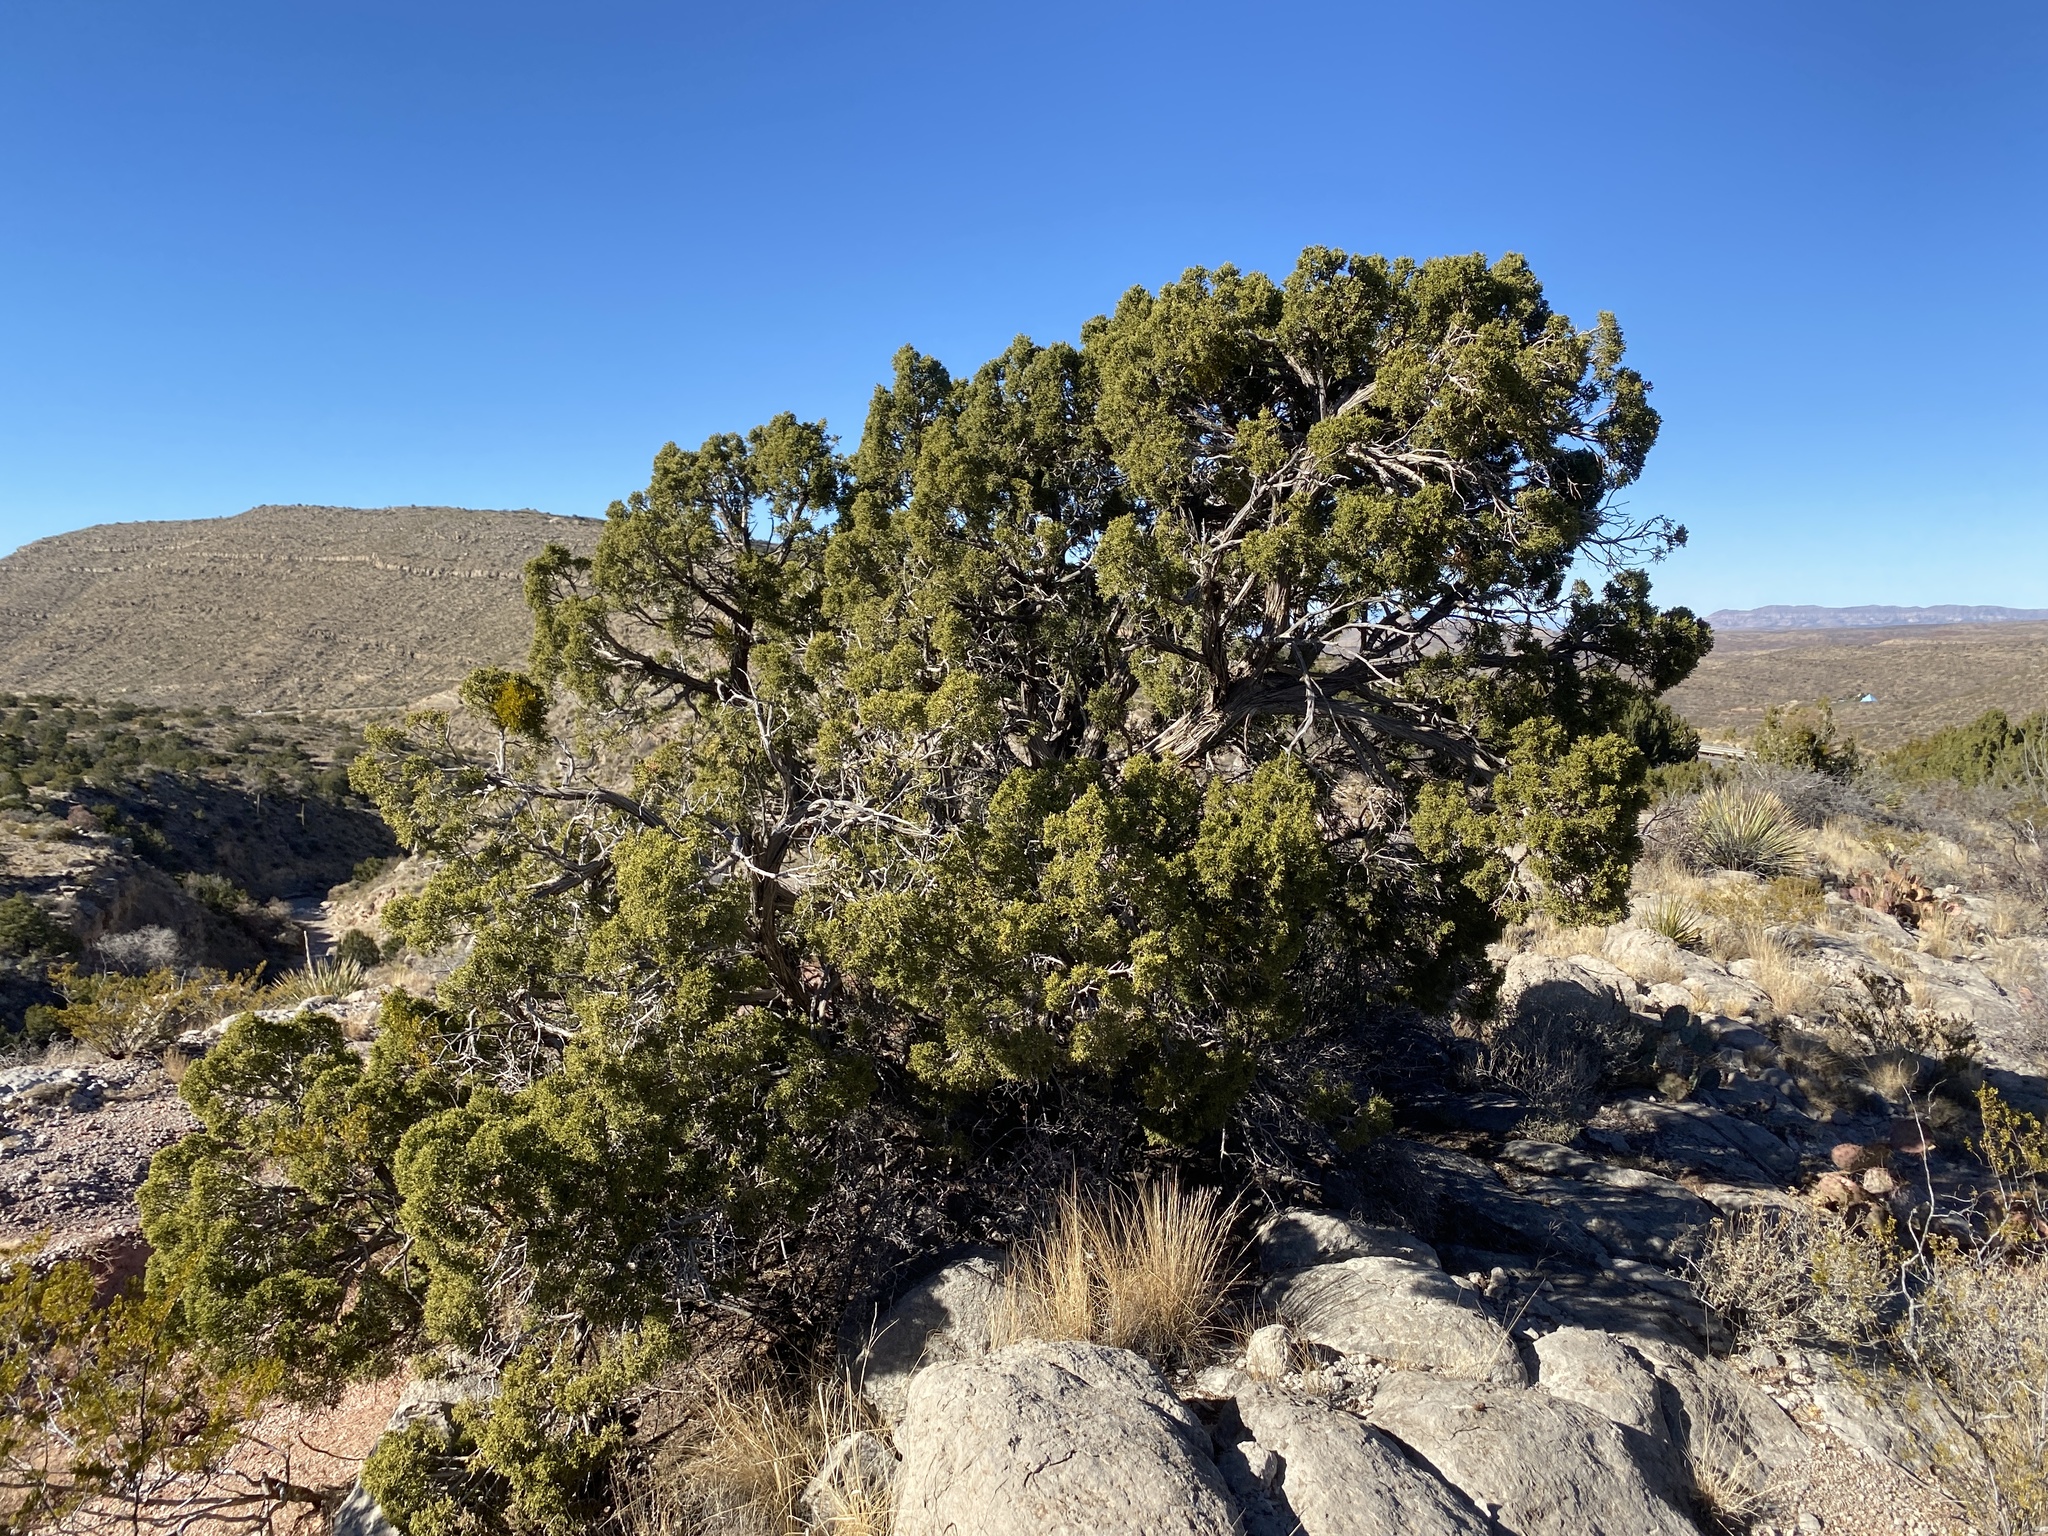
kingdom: Plantae
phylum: Tracheophyta
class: Pinopsida
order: Pinales
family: Cupressaceae
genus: Juniperus
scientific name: Juniperus monosperma
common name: One-seed juniper
